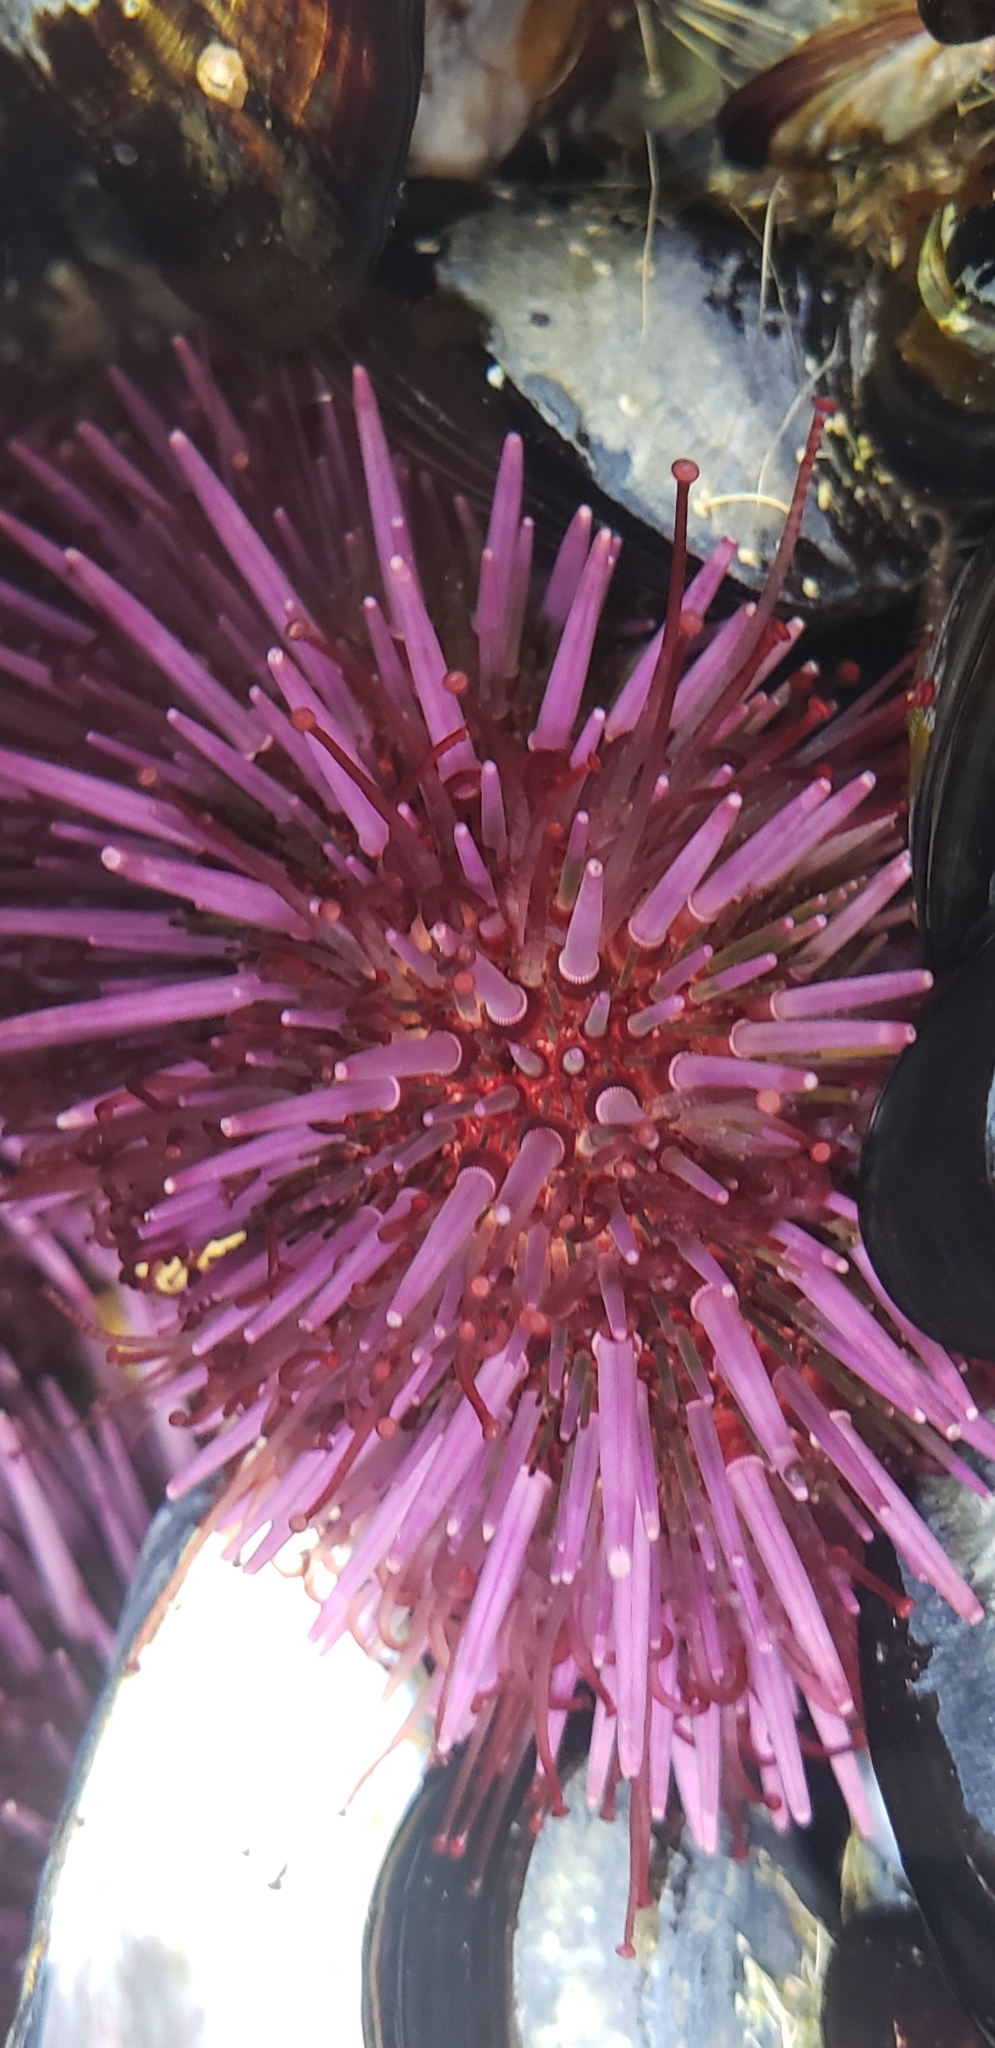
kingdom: Animalia
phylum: Echinodermata
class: Echinoidea
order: Camarodonta
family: Strongylocentrotidae
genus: Strongylocentrotus
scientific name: Strongylocentrotus purpuratus
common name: Purple sea urchin
